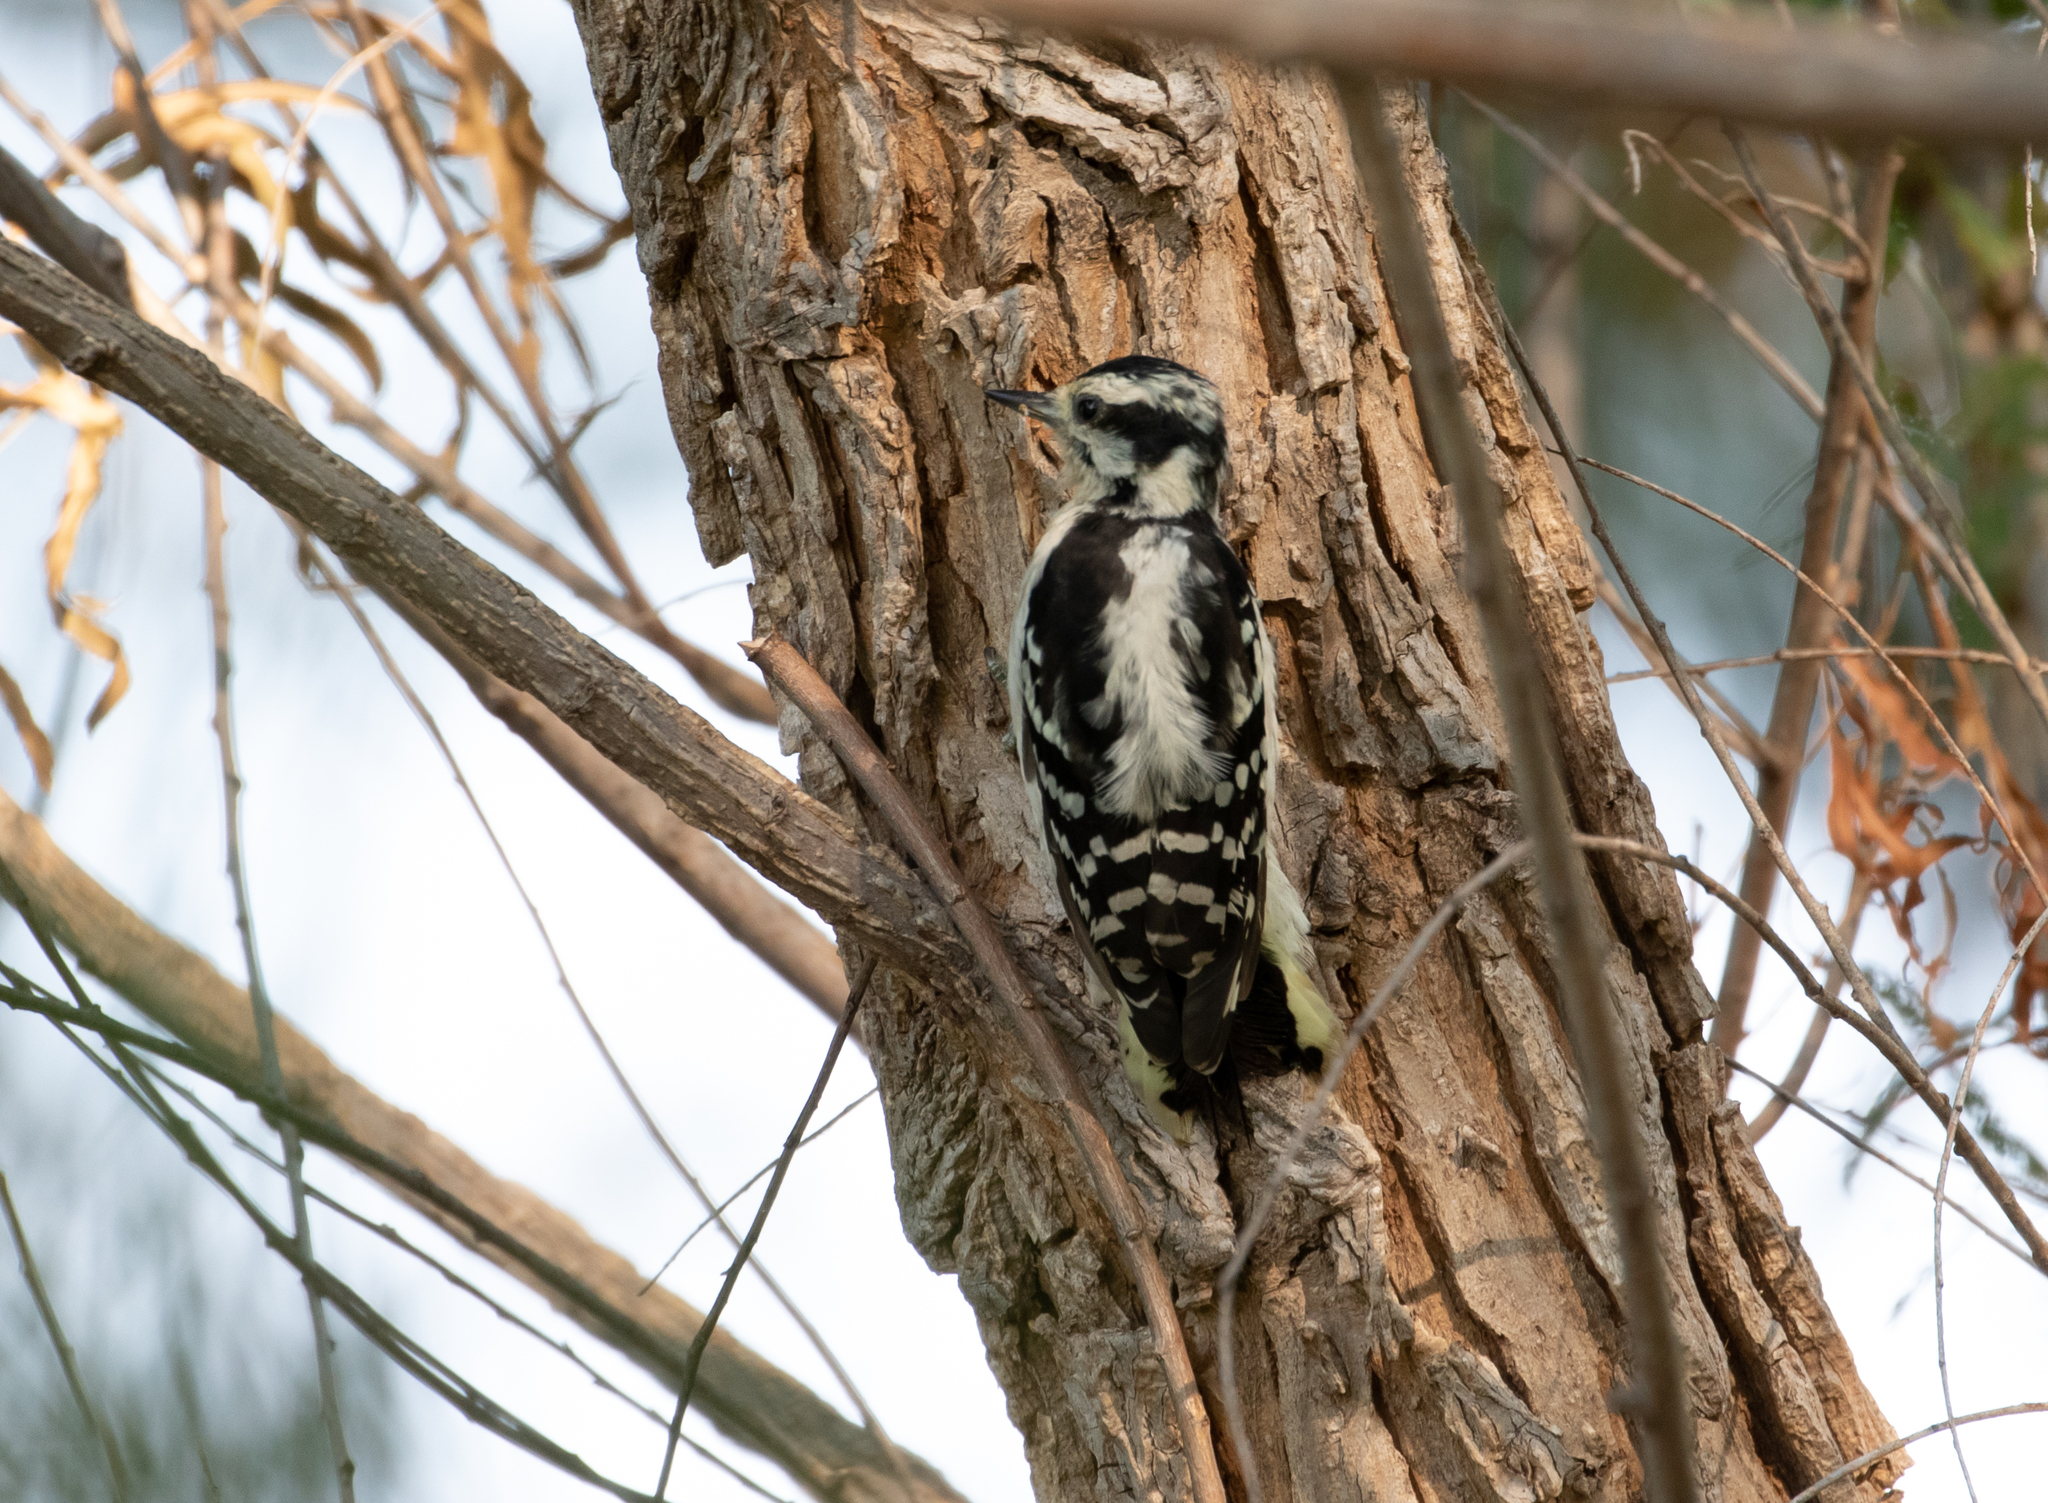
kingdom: Animalia
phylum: Chordata
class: Aves
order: Piciformes
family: Picidae
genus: Dryobates
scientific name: Dryobates pubescens
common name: Downy woodpecker
